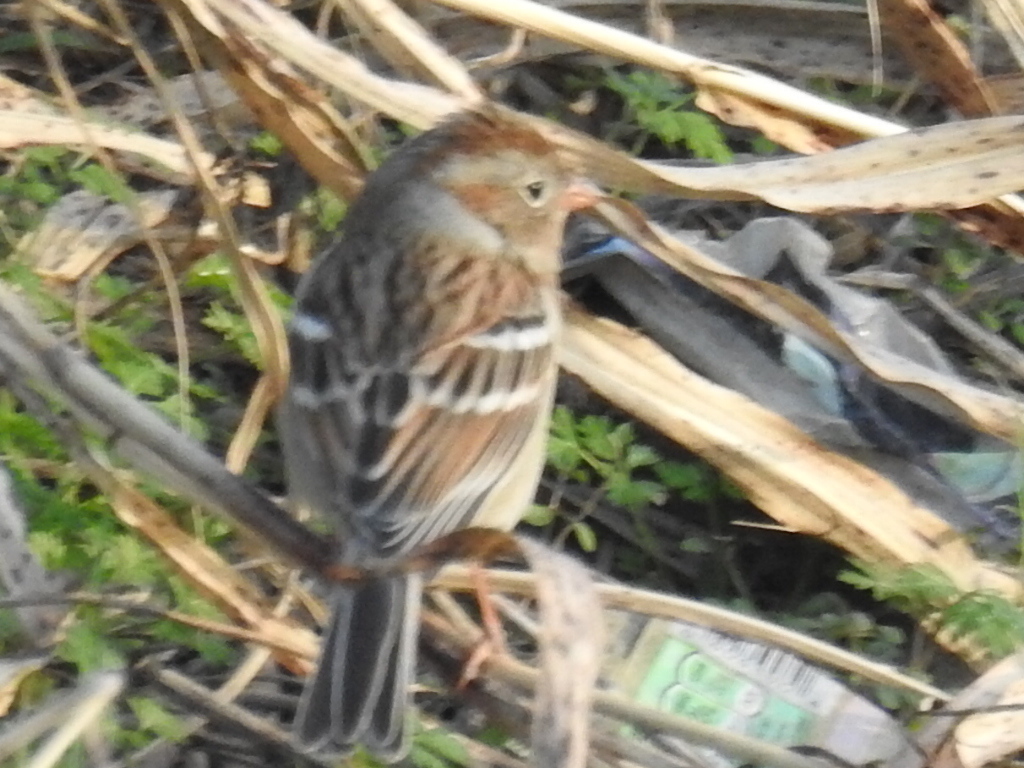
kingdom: Animalia
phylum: Chordata
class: Aves
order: Passeriformes
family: Passerellidae
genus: Spizella
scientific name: Spizella pusilla
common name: Field sparrow
